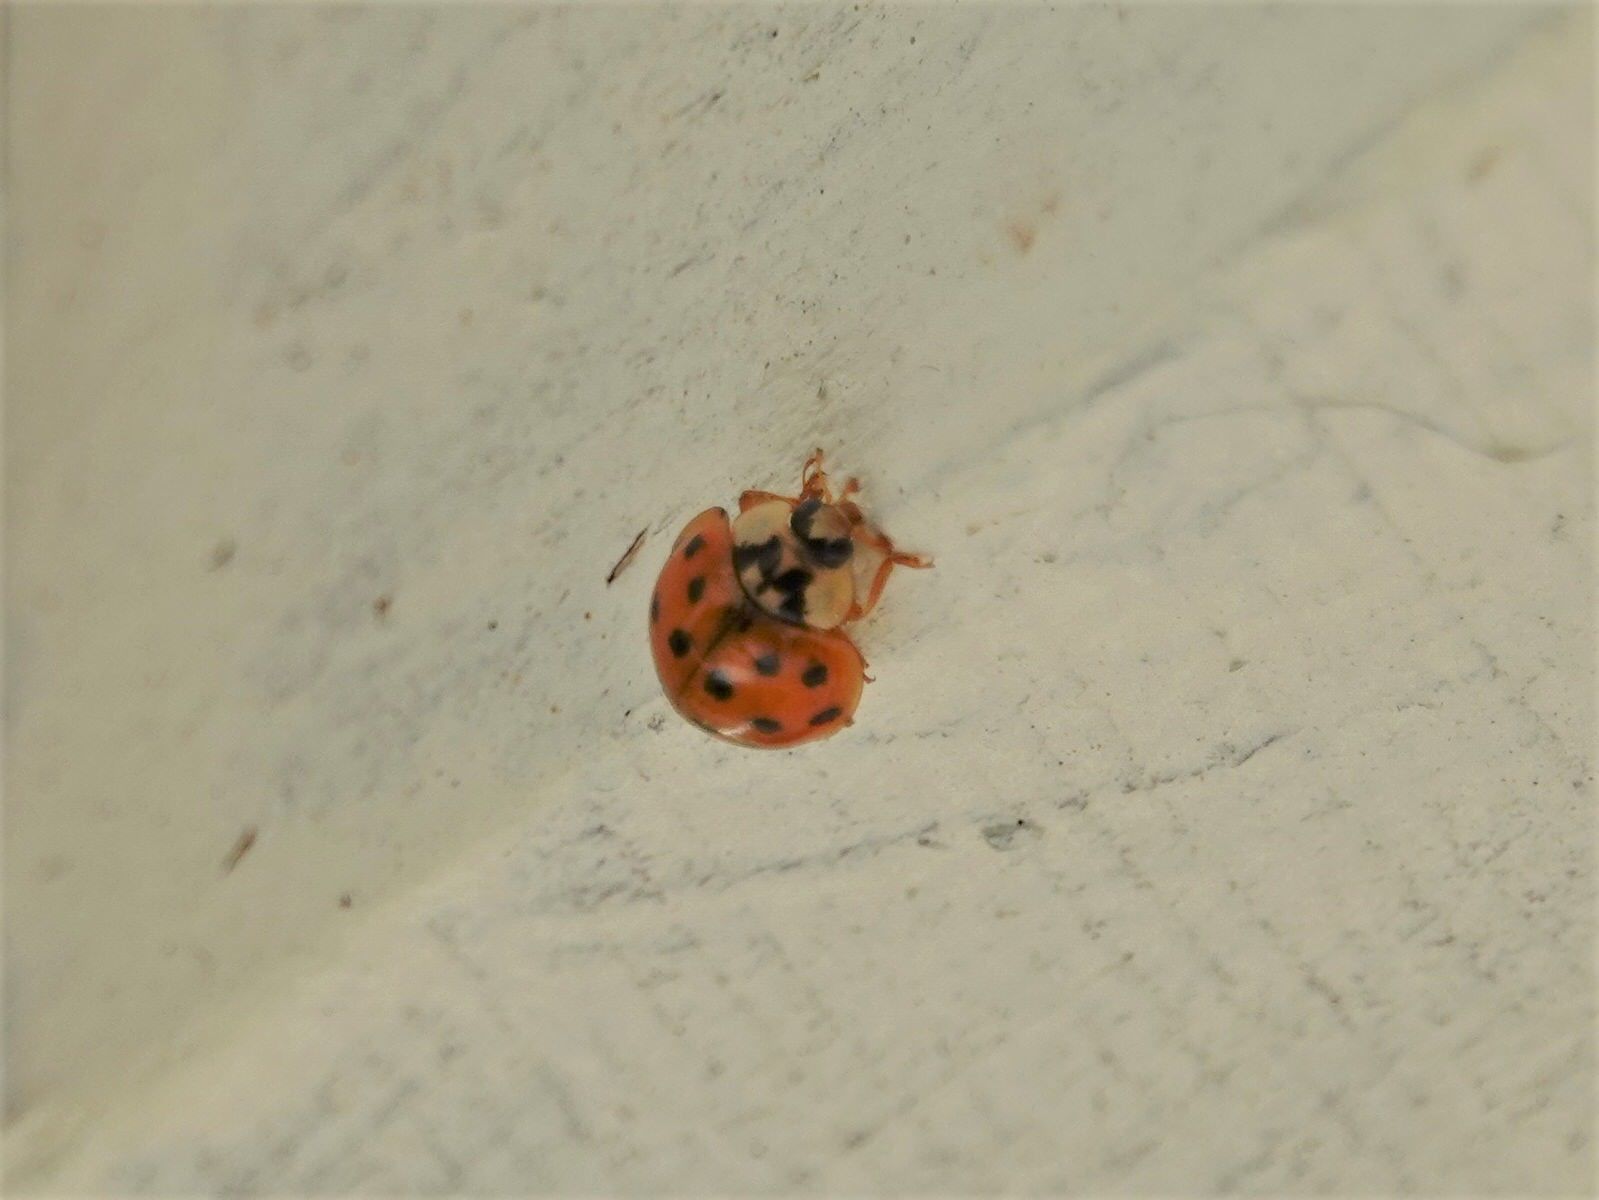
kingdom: Animalia
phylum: Arthropoda
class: Insecta
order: Coleoptera
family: Coccinellidae
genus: Harmonia
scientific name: Harmonia axyridis
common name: Harlequin ladybird
